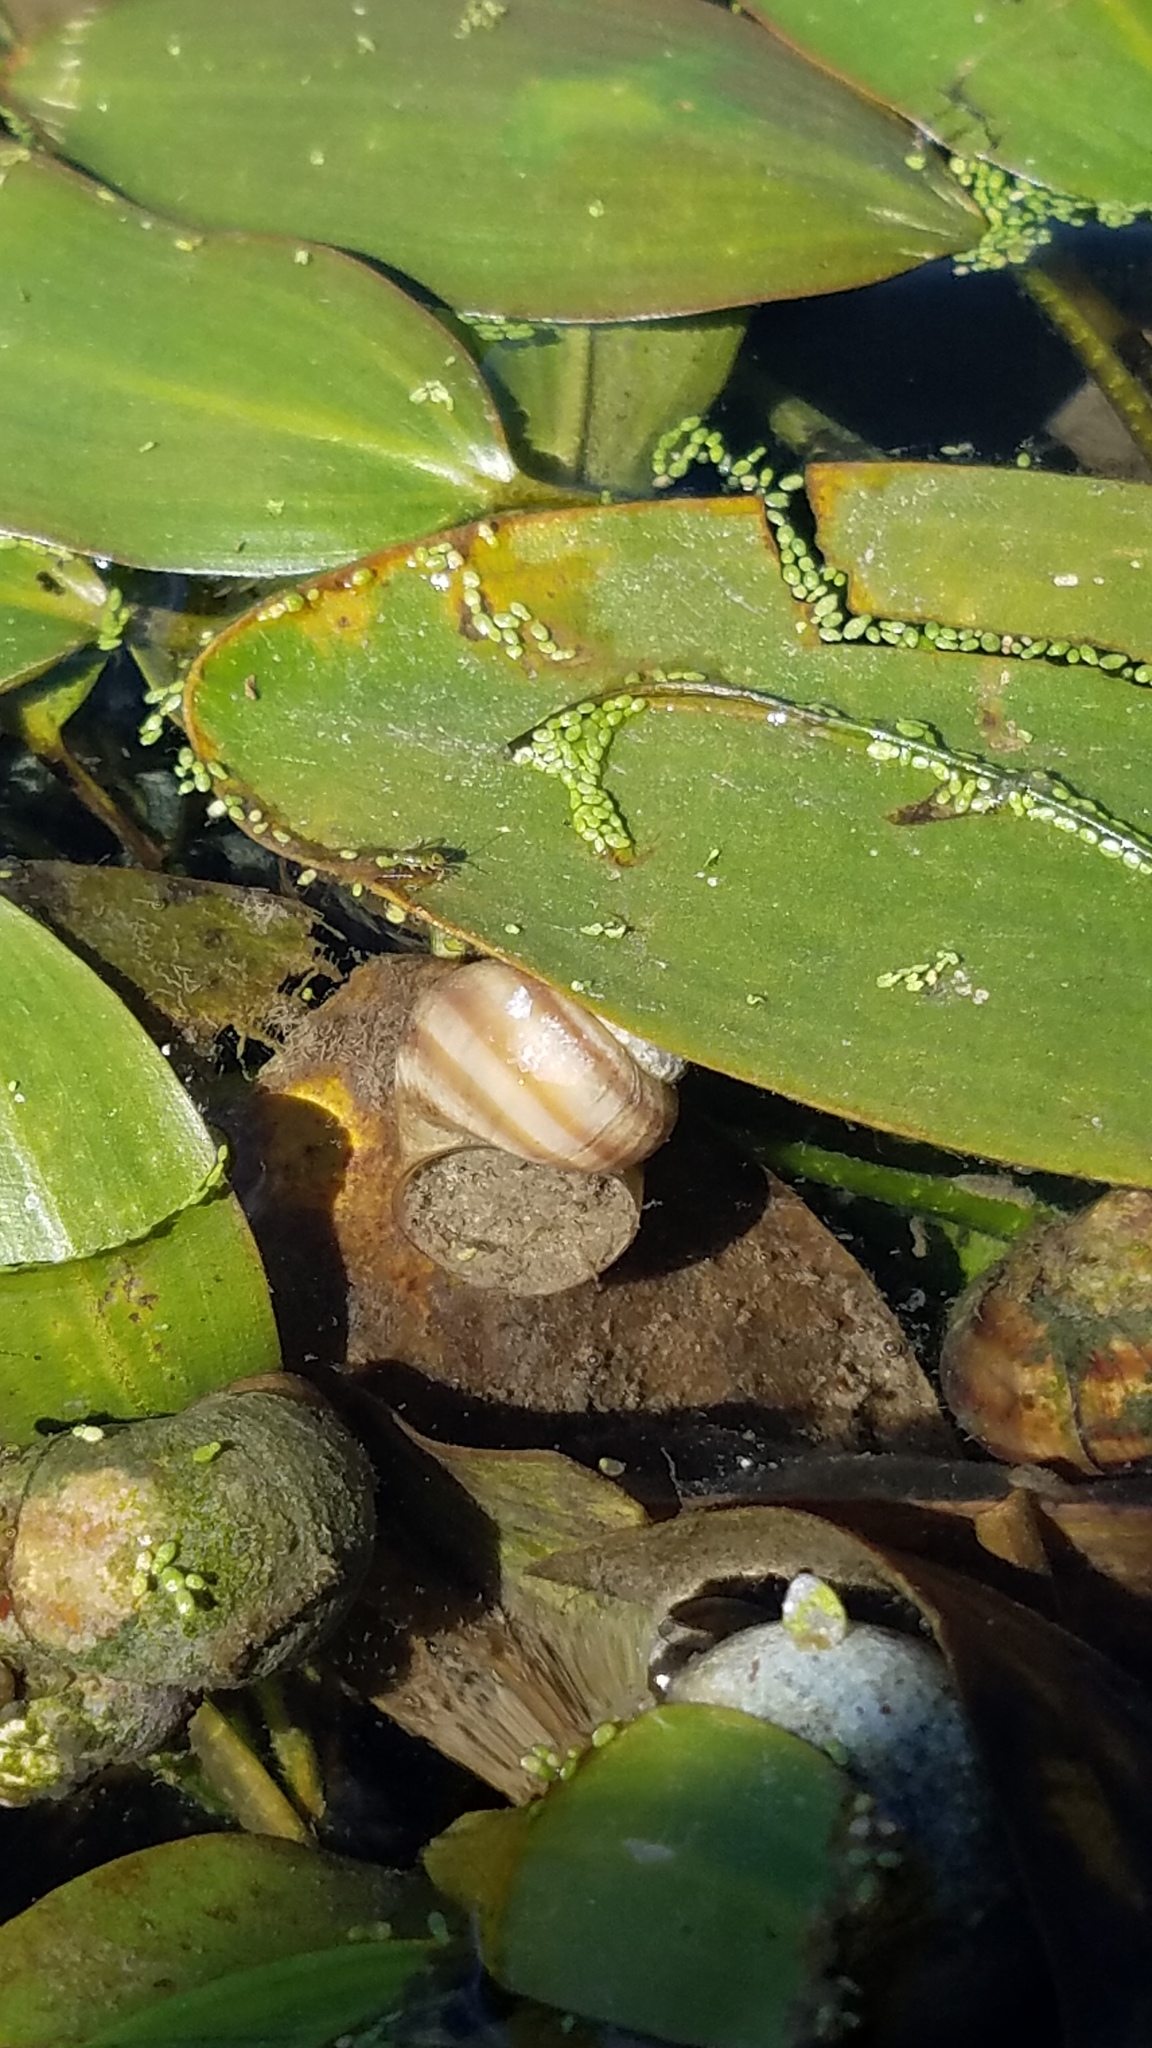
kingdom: Animalia
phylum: Mollusca
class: Gastropoda
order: Architaenioglossa
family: Viviparidae
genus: Callinina
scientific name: Callinina georgiana
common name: Banded mystery snail
